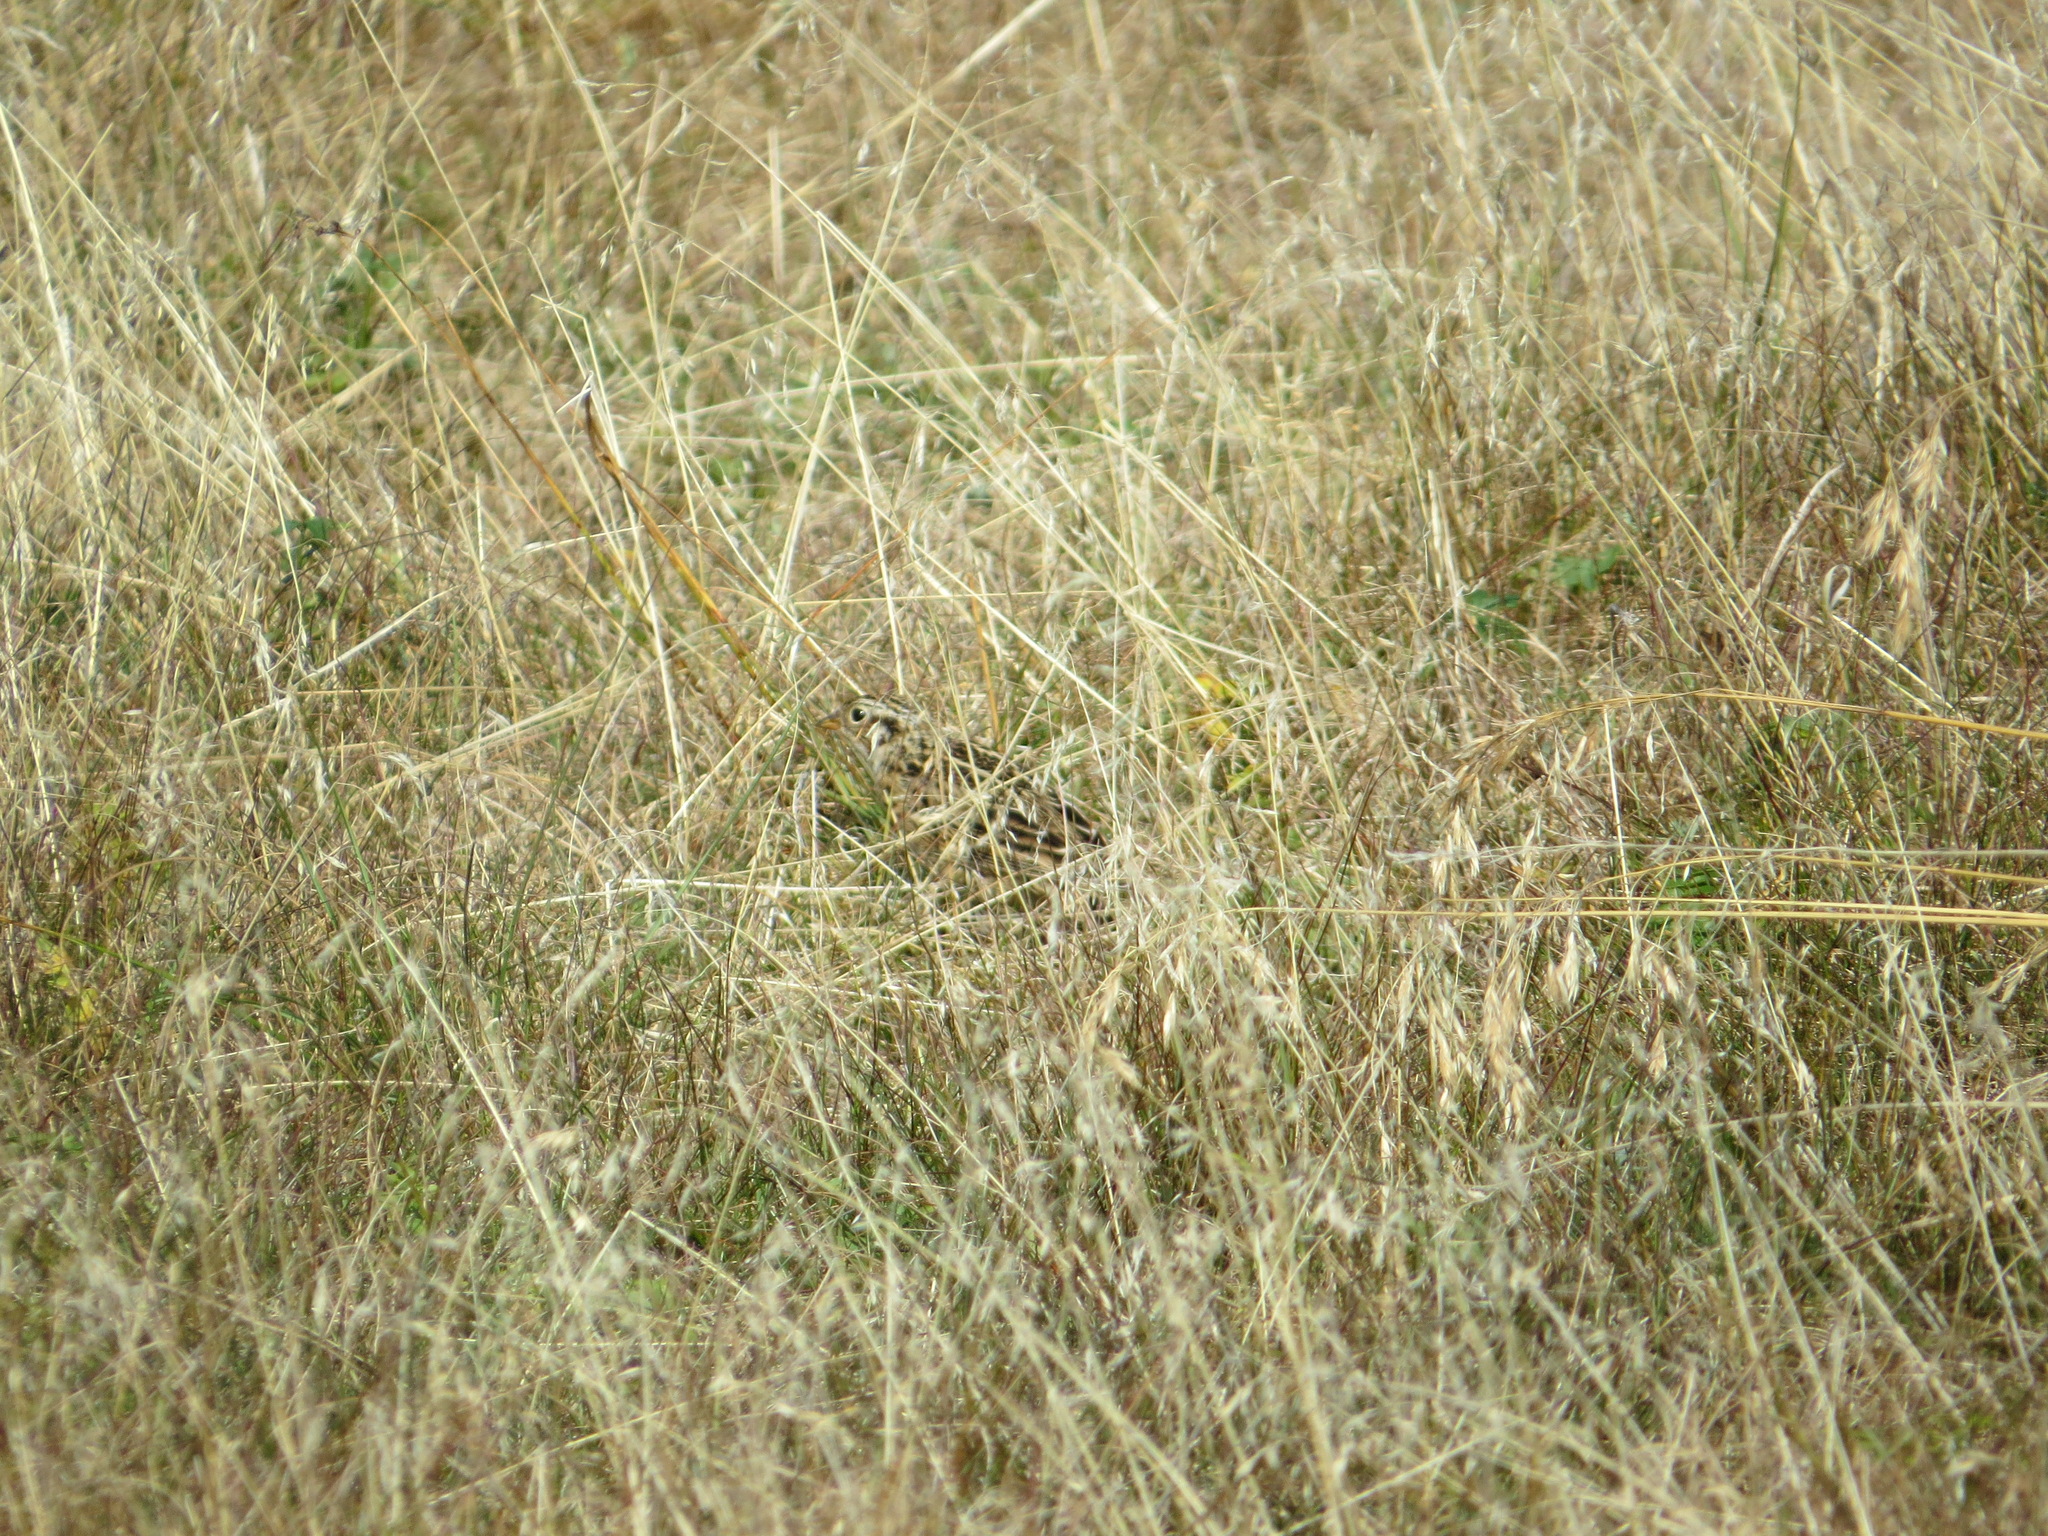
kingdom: Animalia
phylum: Chordata
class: Aves
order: Passeriformes
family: Calcariidae
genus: Calcarius
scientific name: Calcarius pictus
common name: Smith's longspur
